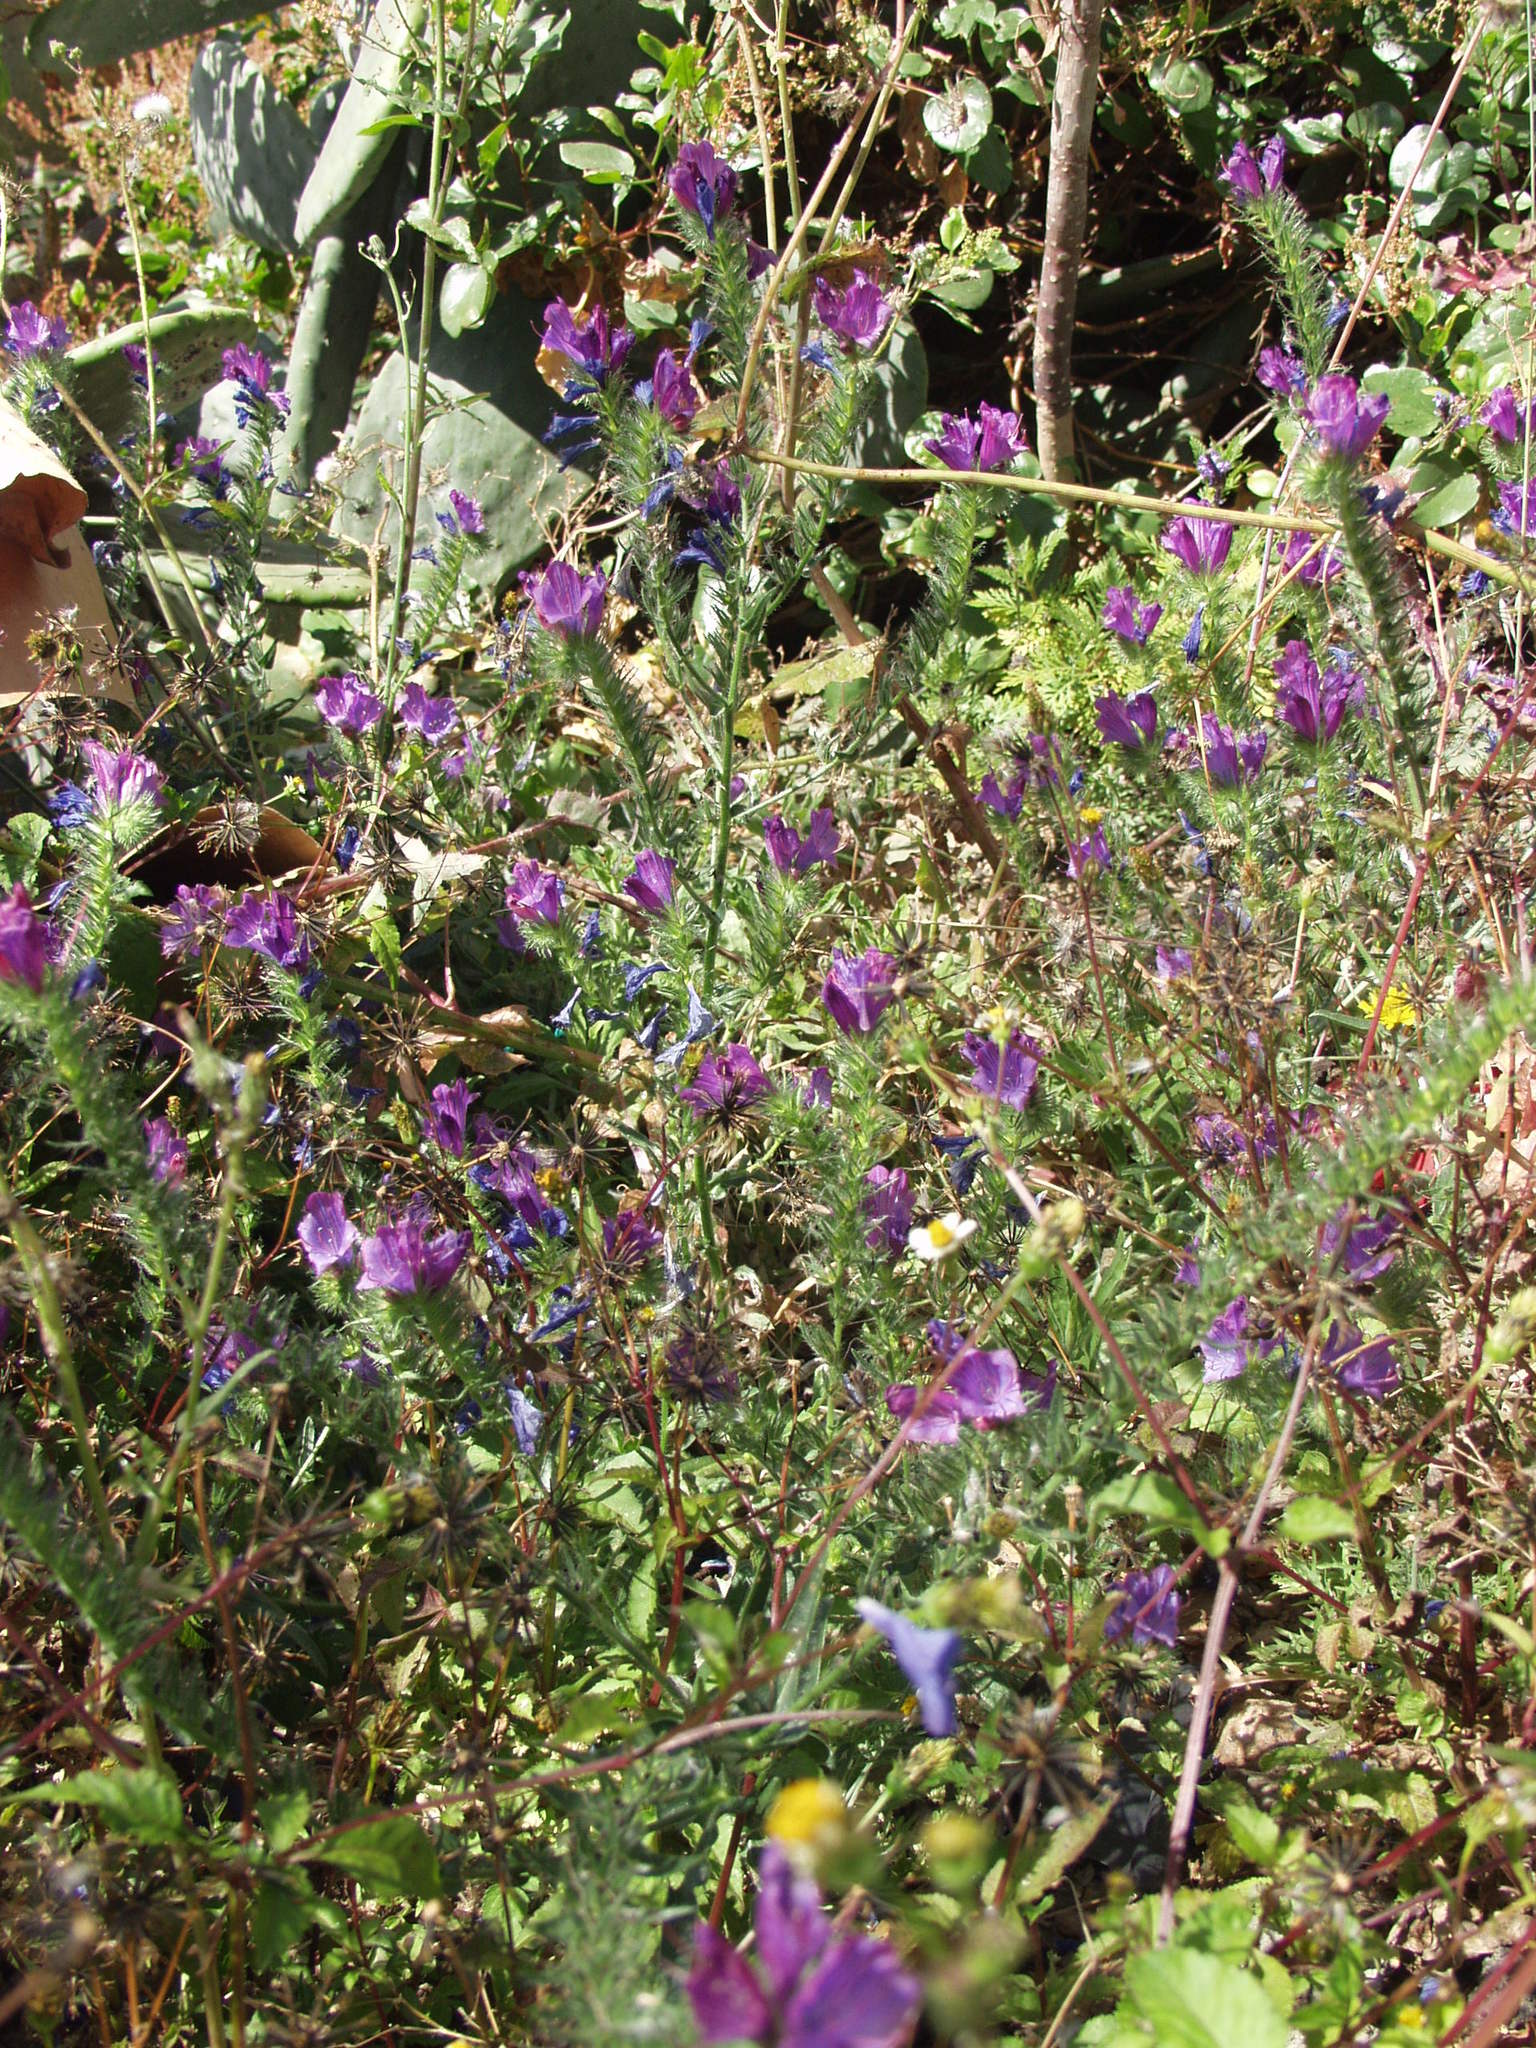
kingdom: Plantae
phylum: Tracheophyta
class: Magnoliopsida
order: Boraginales
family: Boraginaceae
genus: Echium
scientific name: Echium plantagineum
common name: Purple viper's-bugloss
